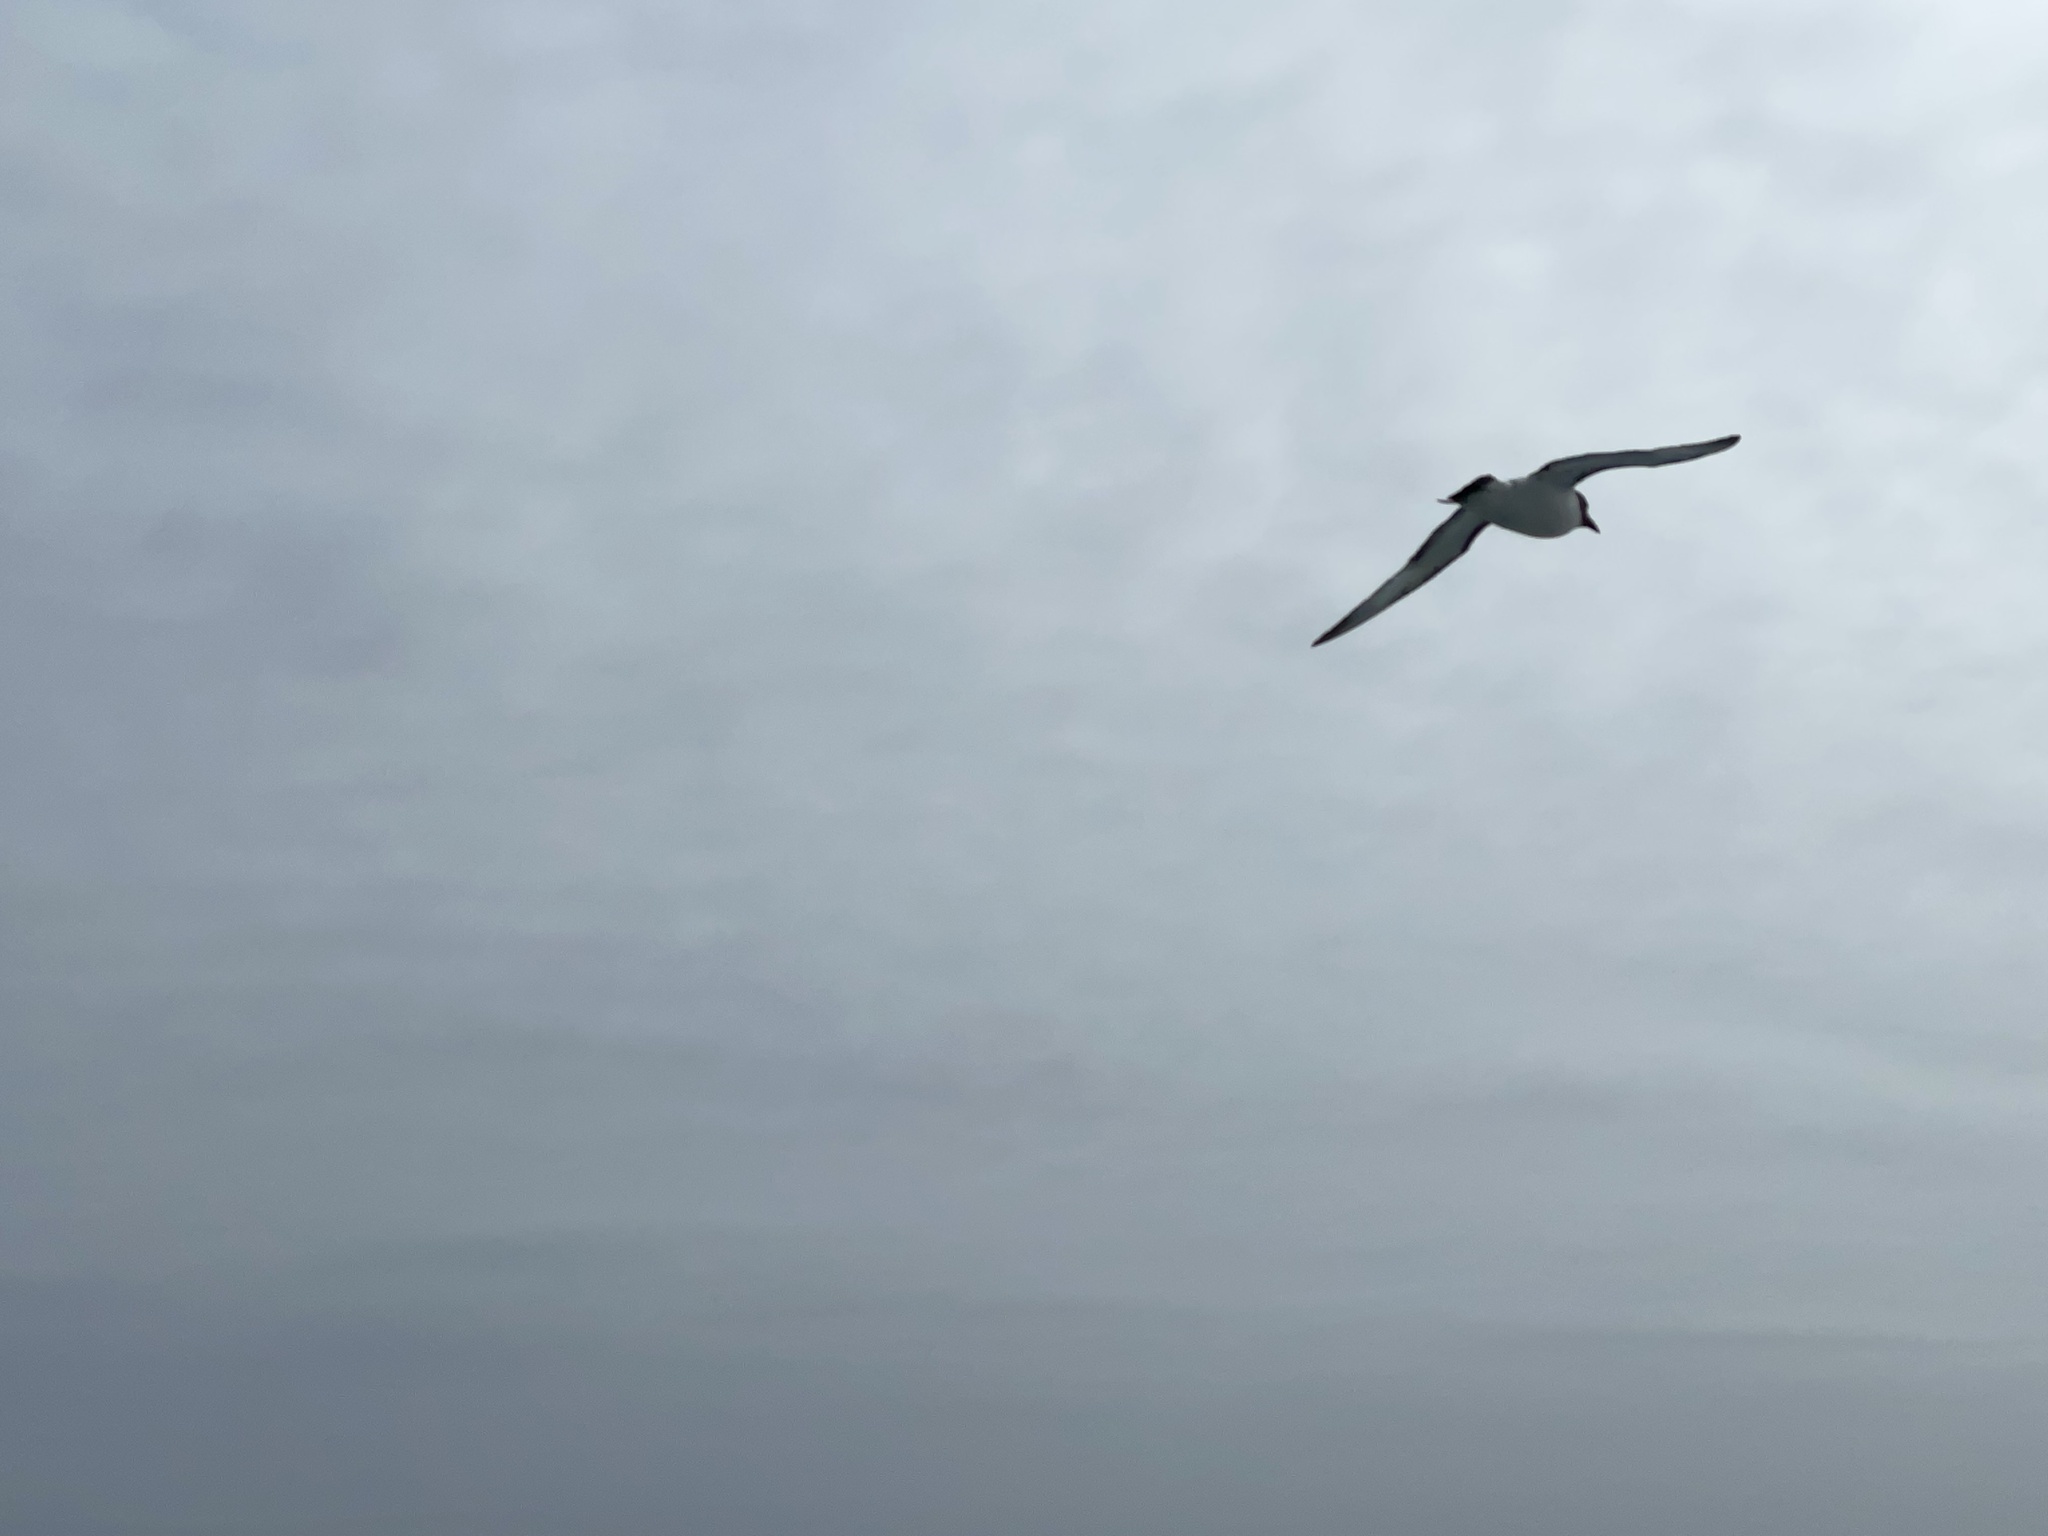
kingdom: Animalia
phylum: Chordata
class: Aves
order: Procellariiformes
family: Procellariidae
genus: Daption
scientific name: Daption capense
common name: Cape petrel
